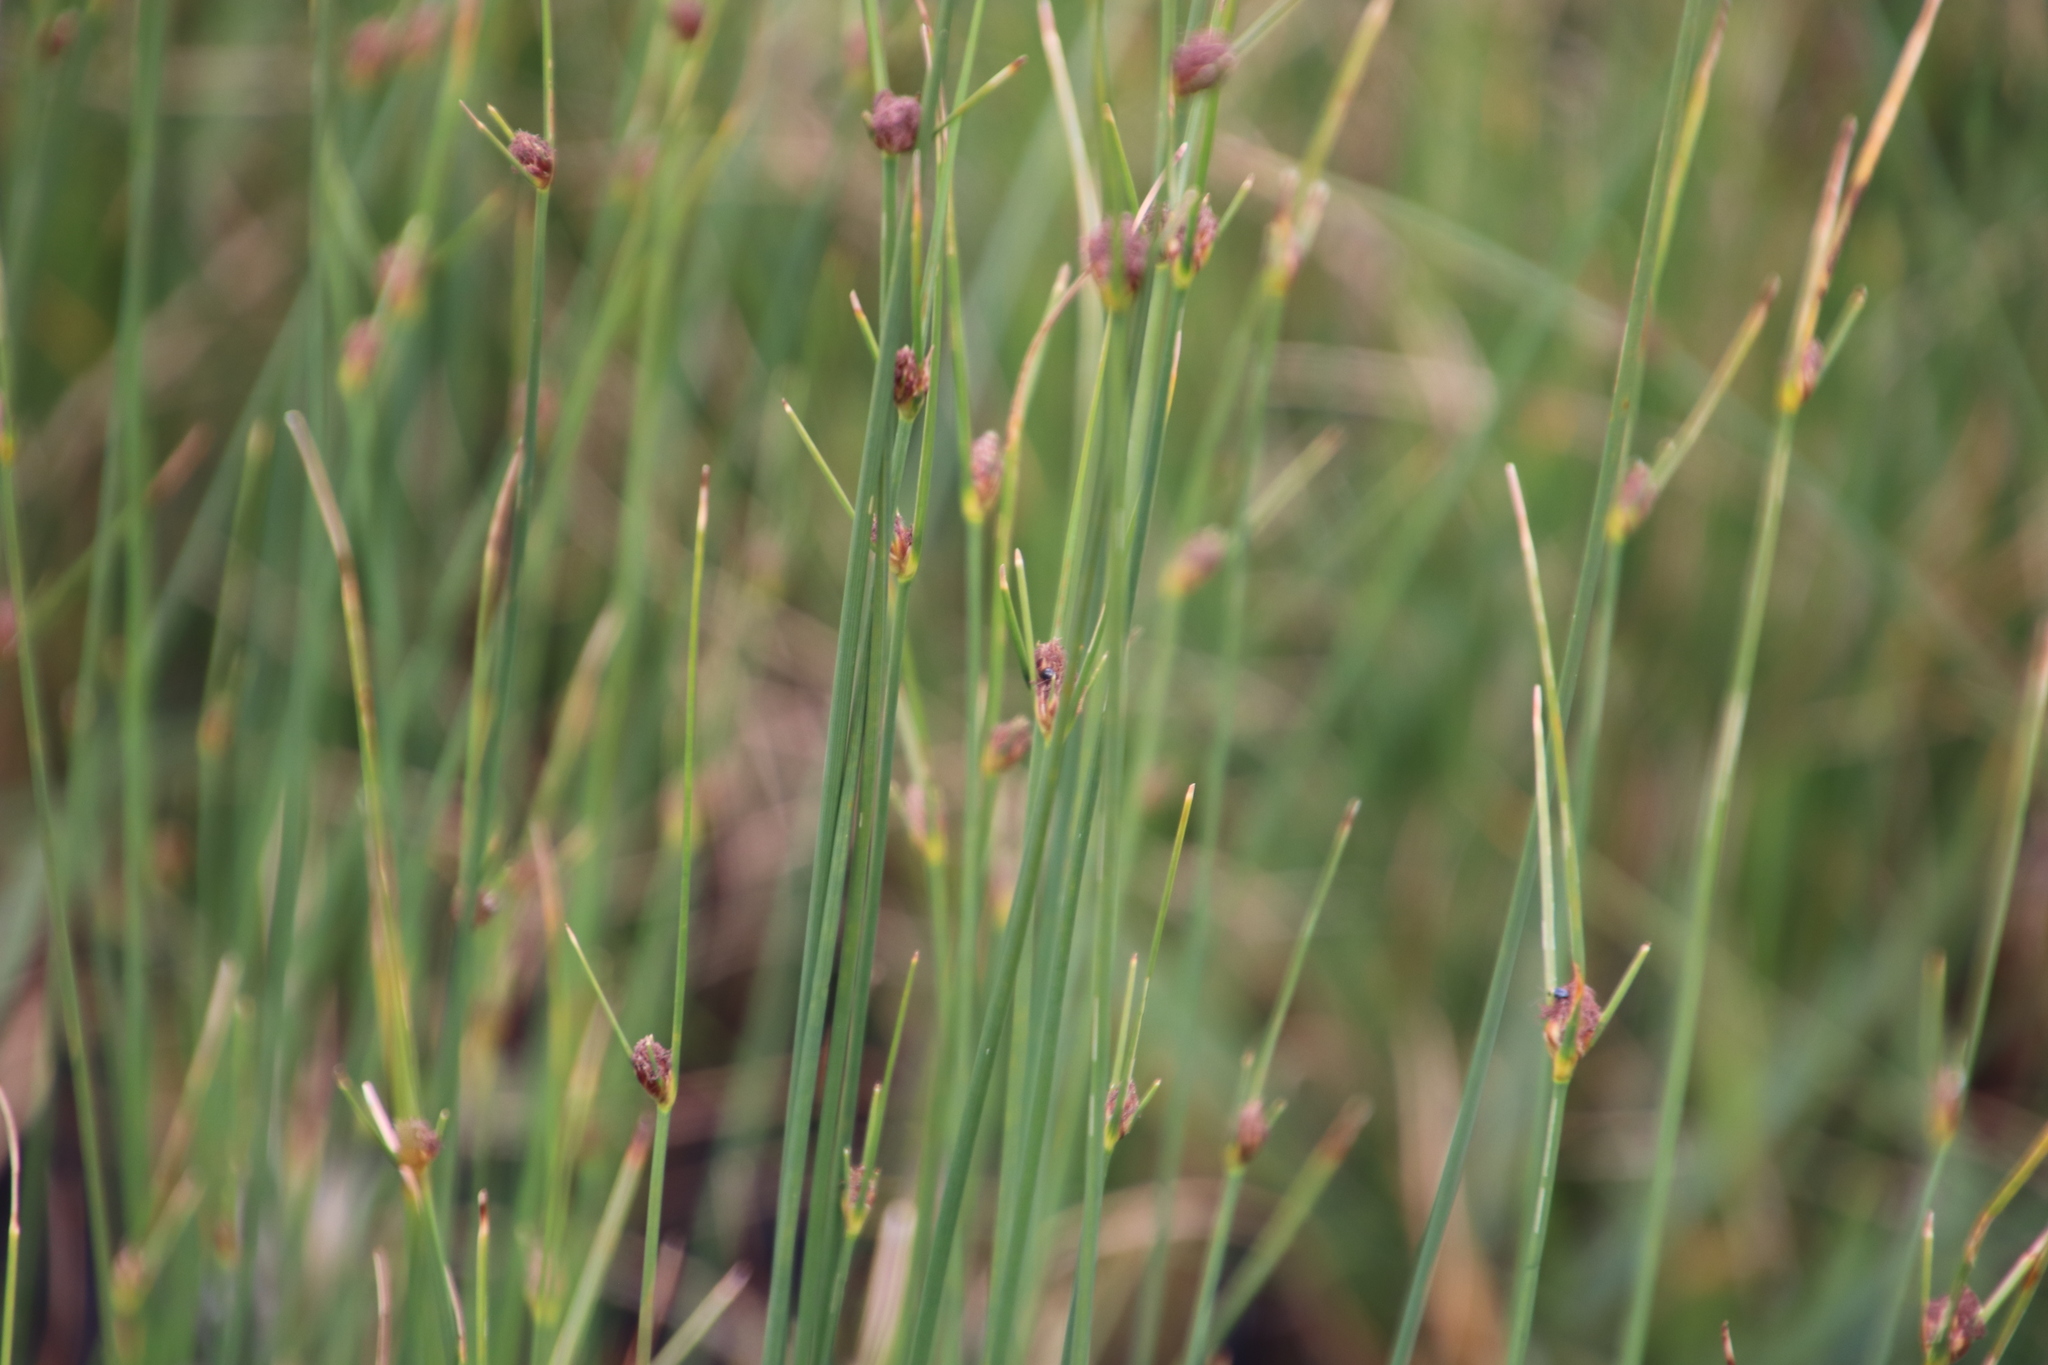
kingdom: Plantae
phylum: Tracheophyta
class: Liliopsida
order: Poales
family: Cyperaceae
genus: Ficinia
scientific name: Ficinia indica
